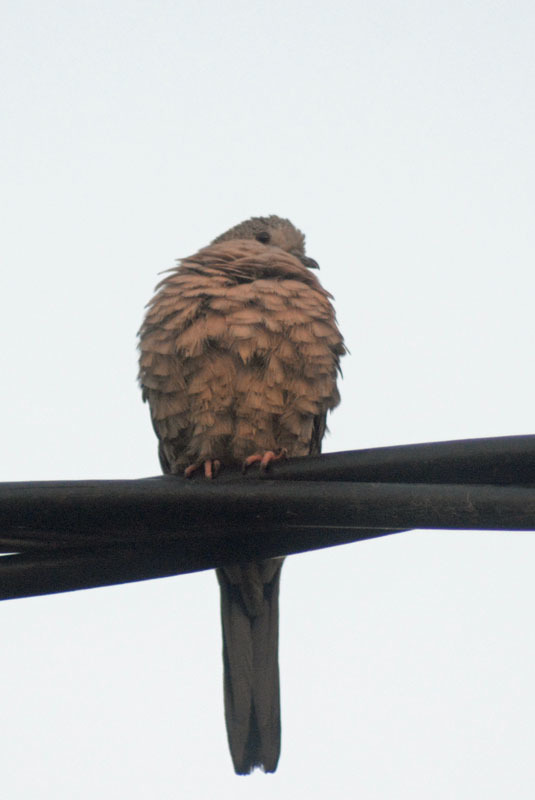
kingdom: Animalia
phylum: Chordata
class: Aves
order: Columbiformes
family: Columbidae
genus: Columbina
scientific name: Columbina inca
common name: Inca dove
